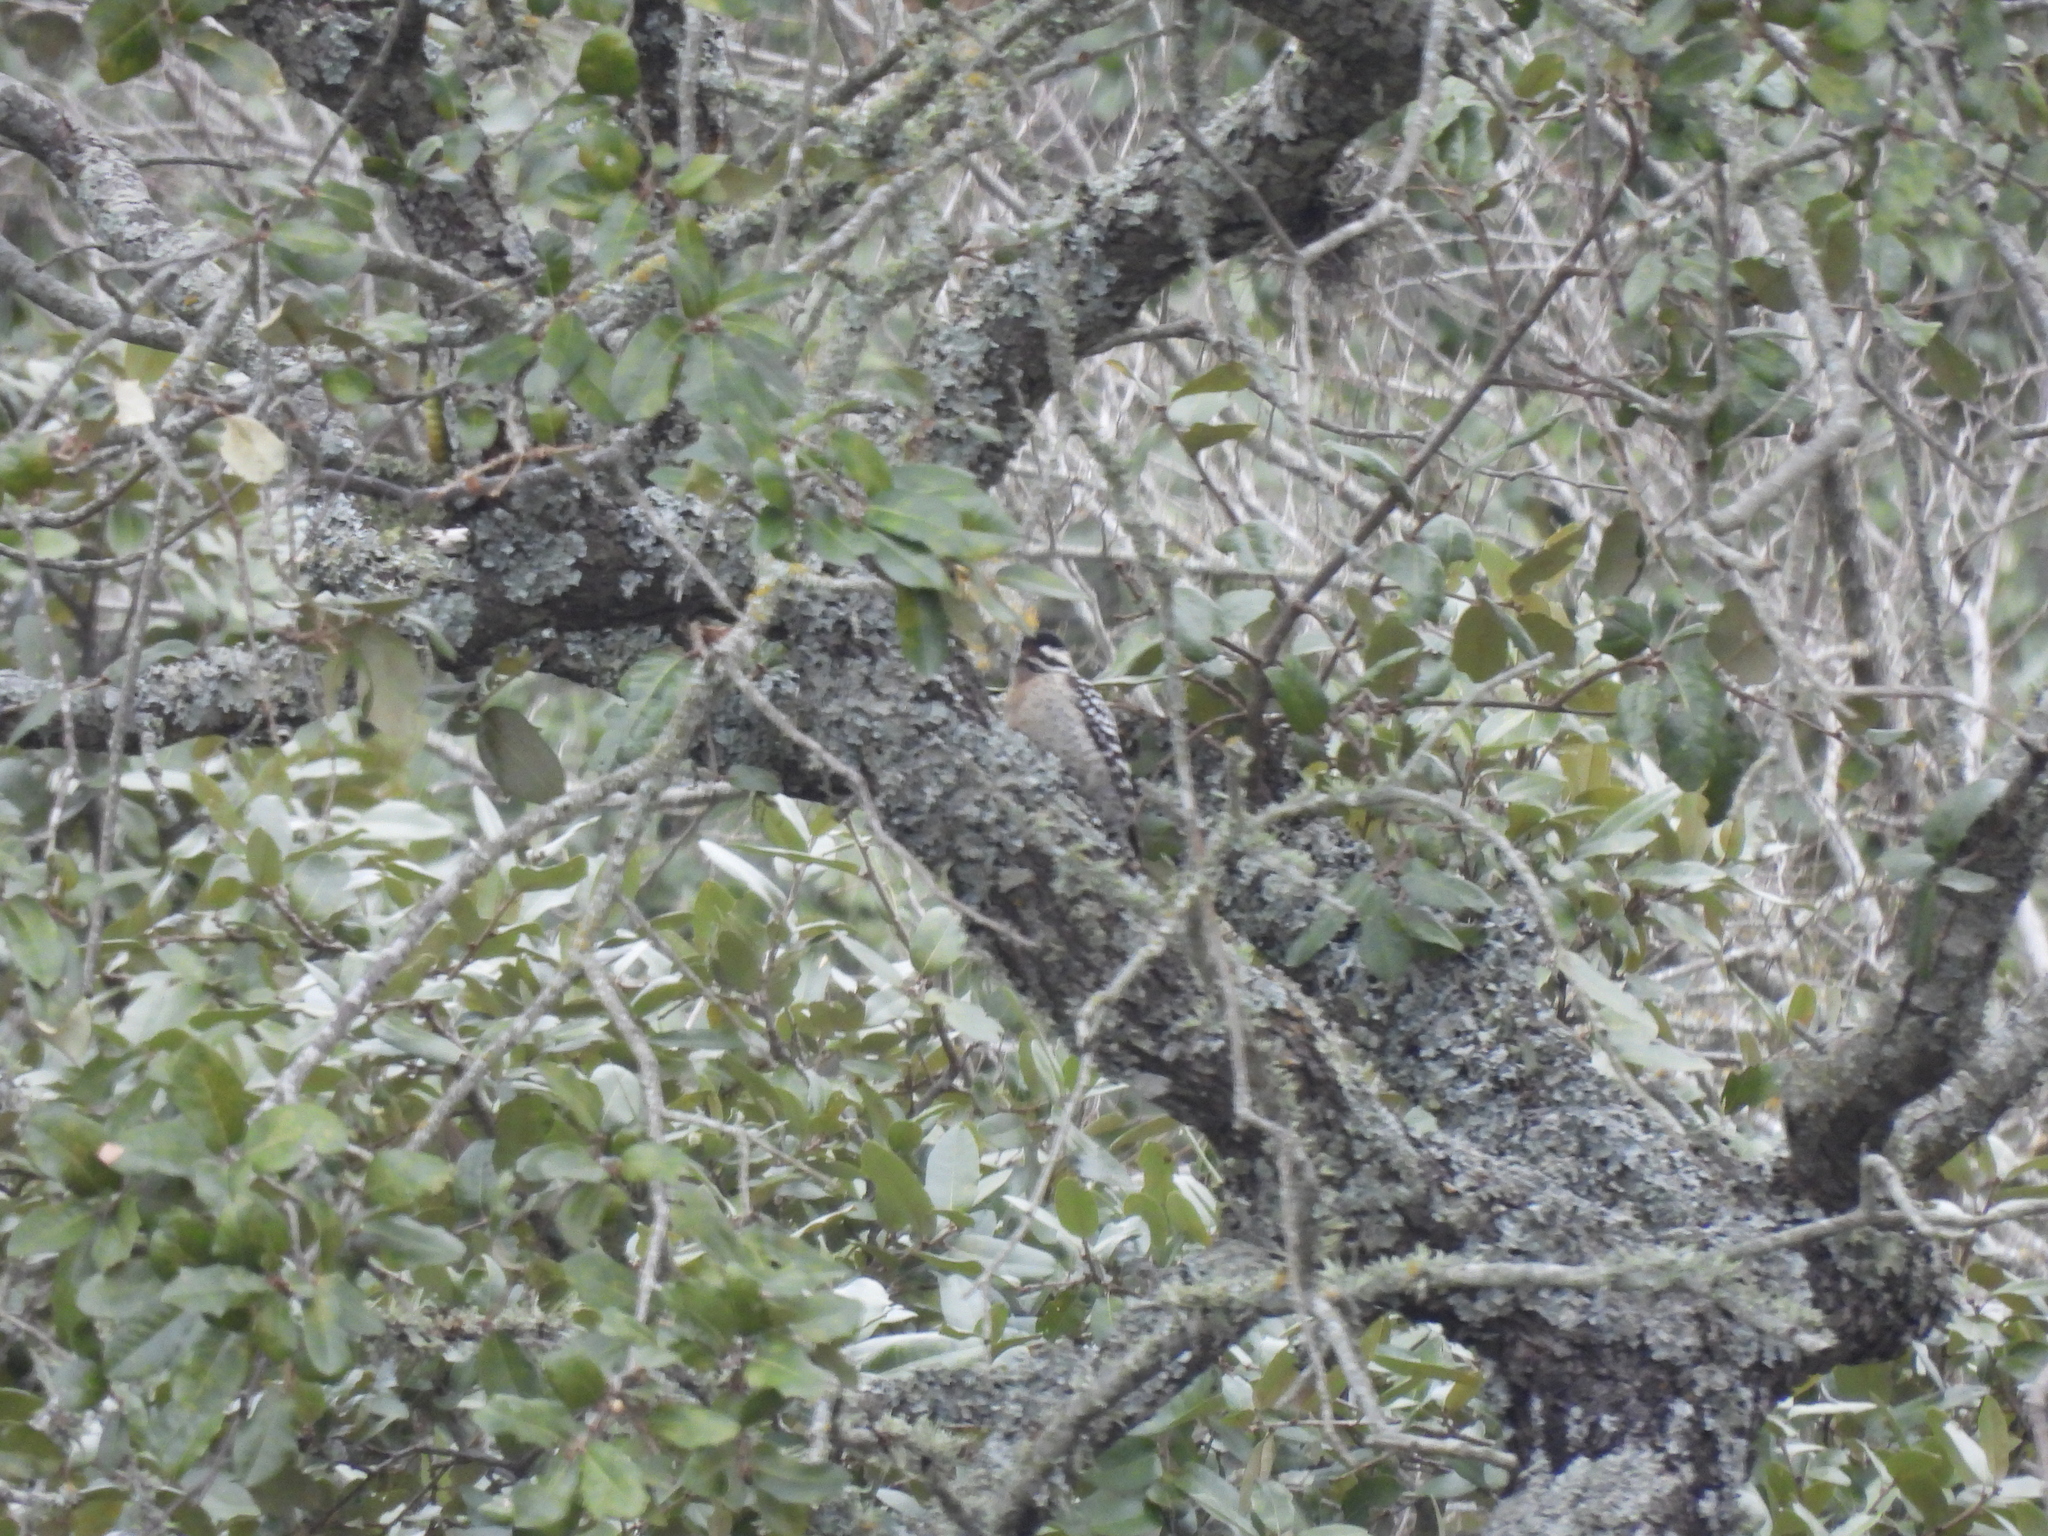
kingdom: Animalia
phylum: Chordata
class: Aves
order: Piciformes
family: Picidae
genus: Dryobates
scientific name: Dryobates scalaris
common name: Ladder-backed woodpecker
